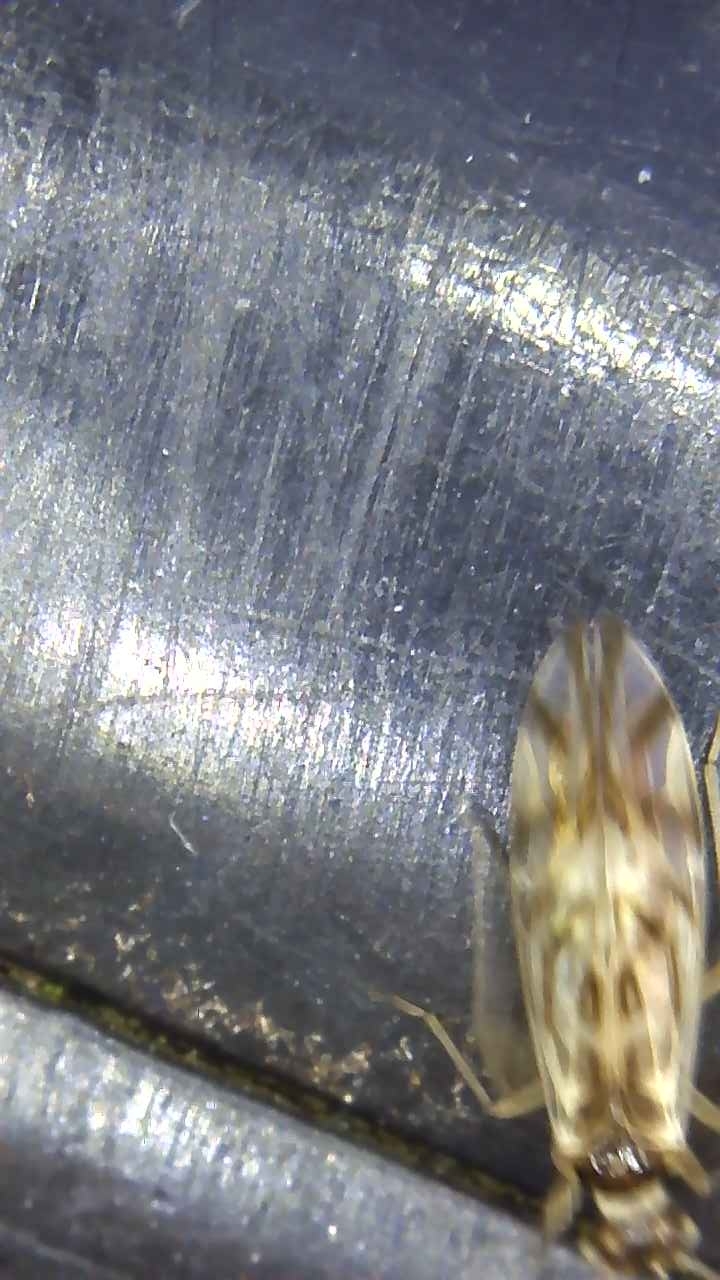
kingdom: Animalia
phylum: Arthropoda
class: Insecta
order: Psocodea
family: Stenopsocidae
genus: Graphopsocus
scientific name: Graphopsocus cruciatus
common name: Lizard bark louse
